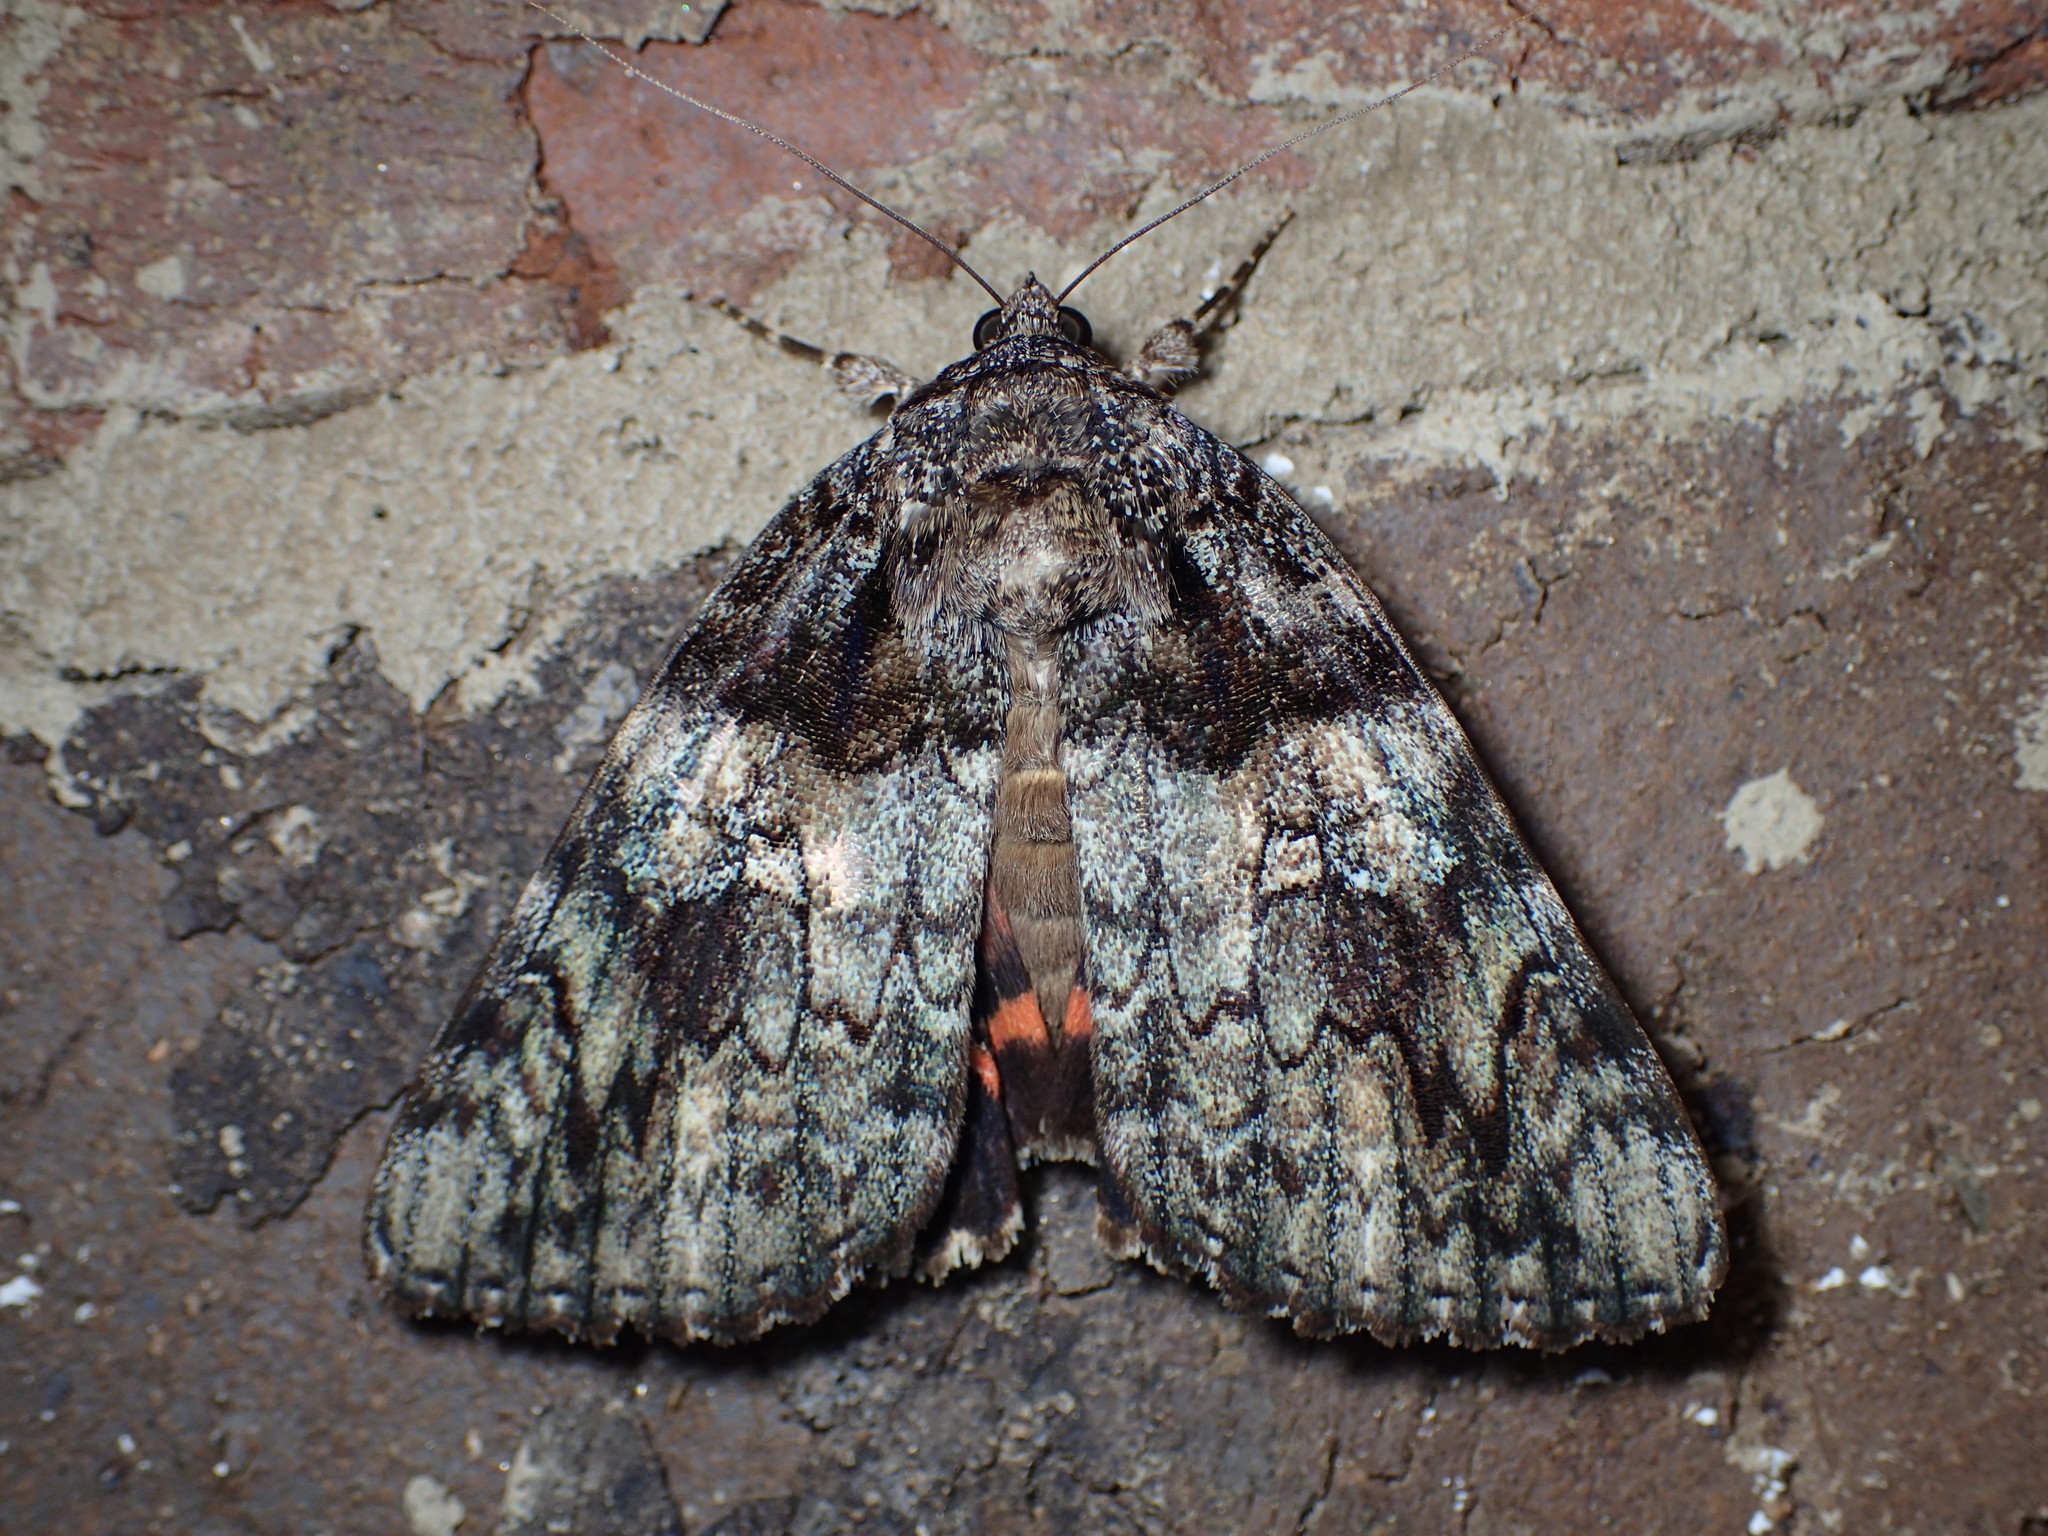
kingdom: Animalia
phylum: Arthropoda
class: Insecta
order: Lepidoptera
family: Erebidae
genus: Catocala
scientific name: Catocala ilia
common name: Ilia underwing
